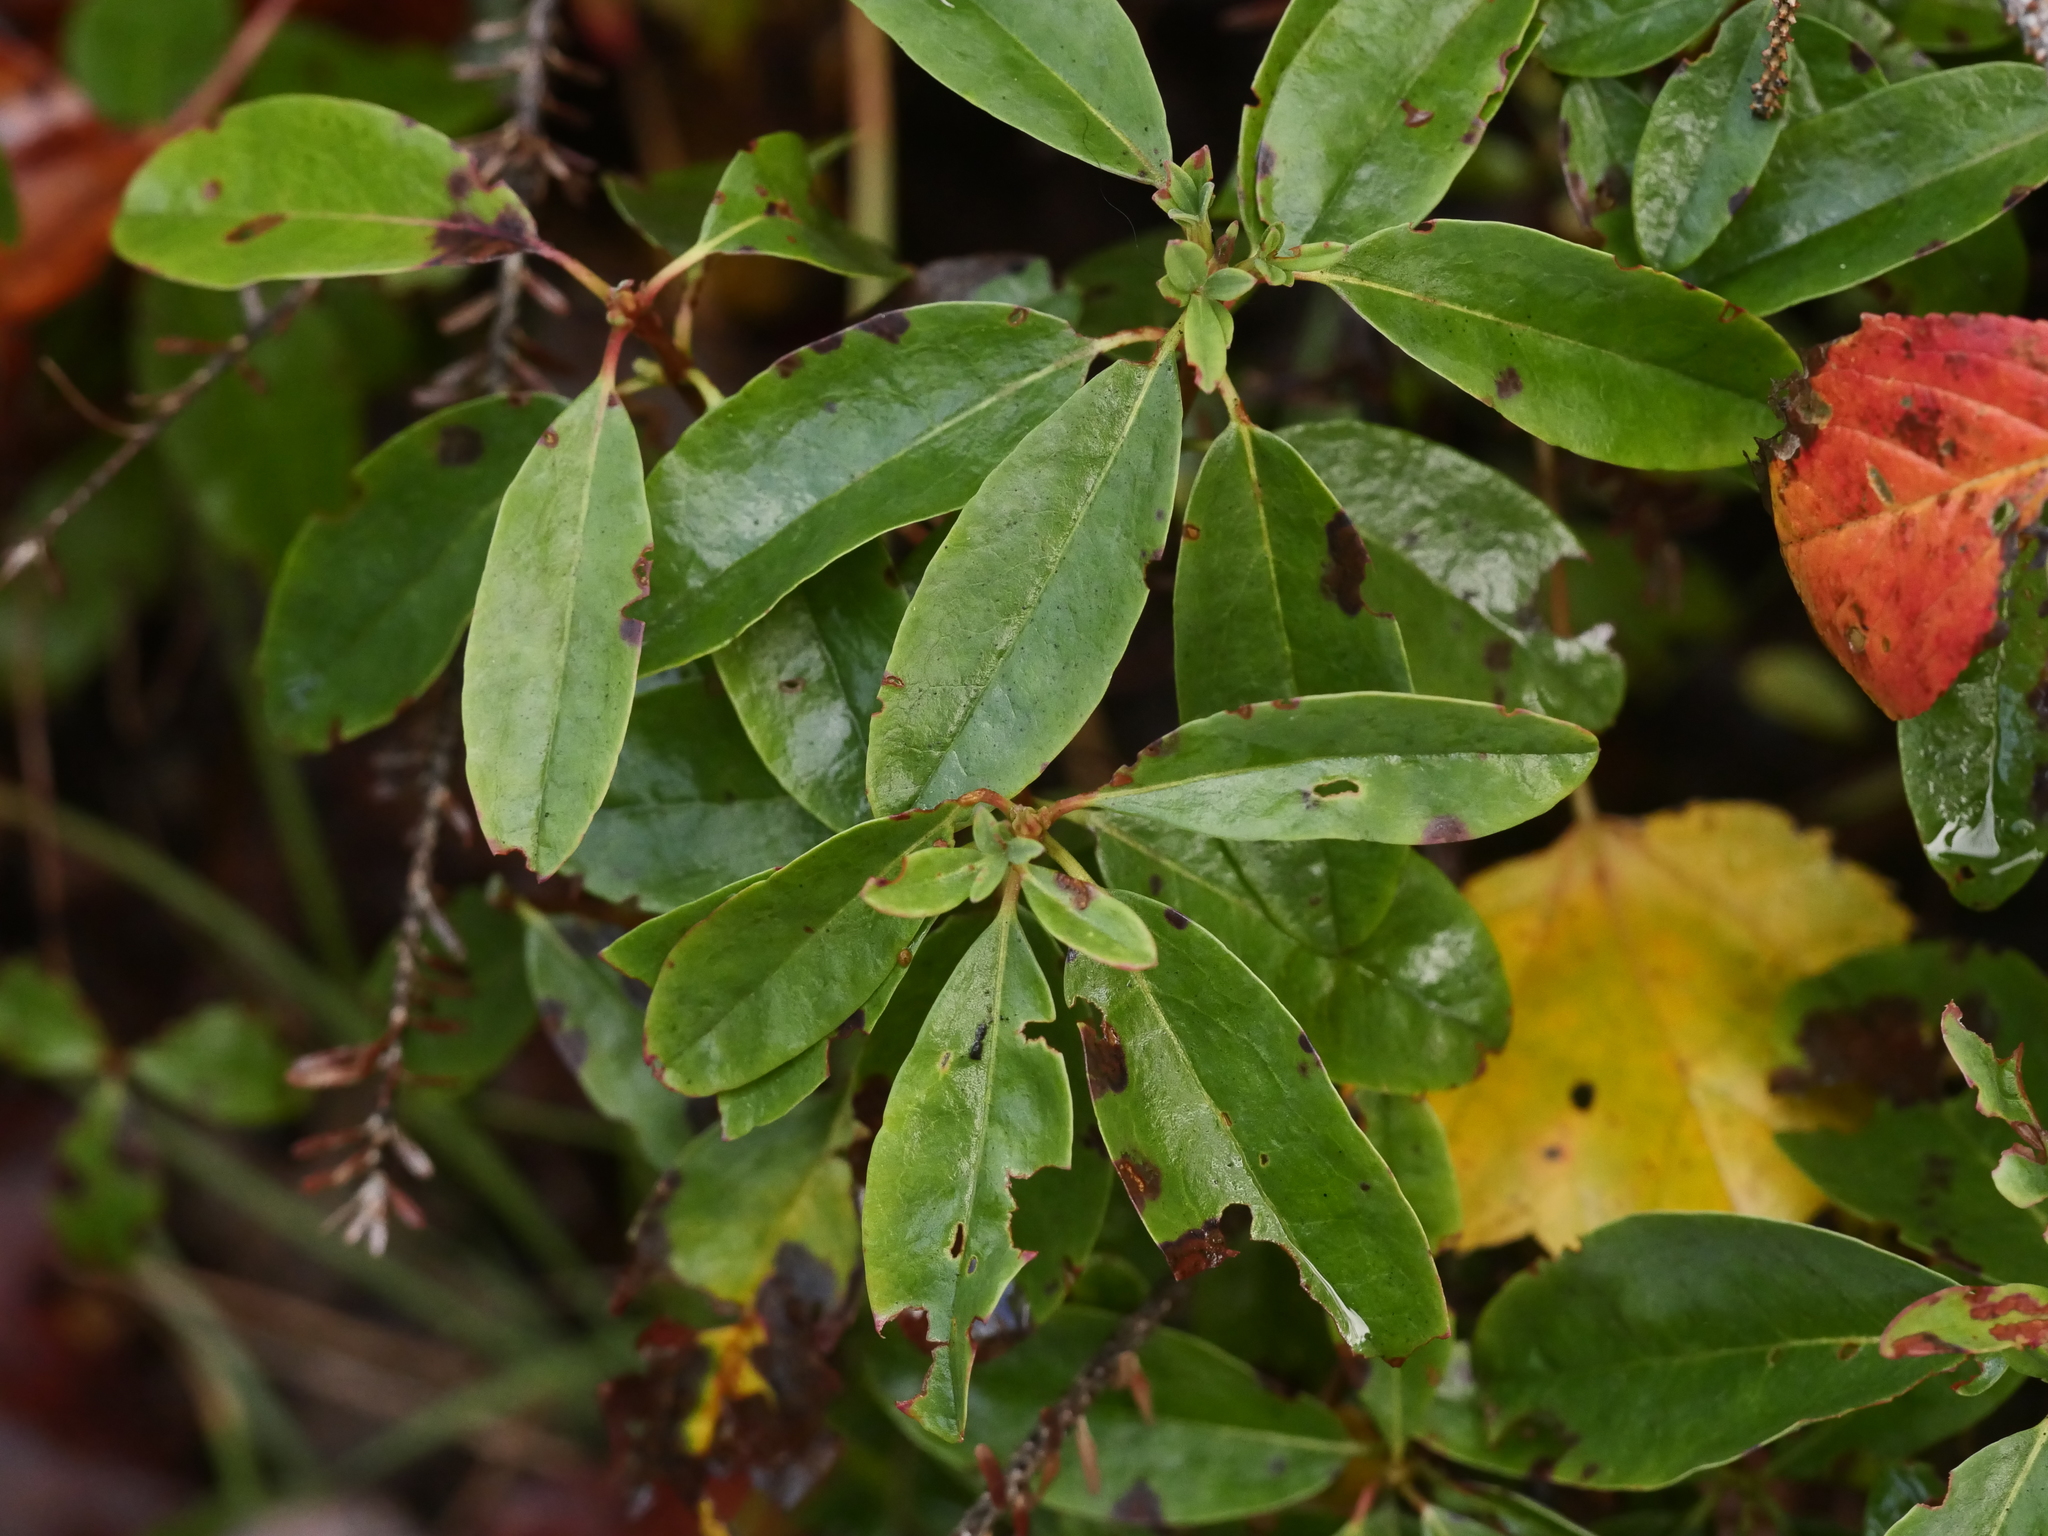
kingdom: Plantae
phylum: Tracheophyta
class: Magnoliopsida
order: Ericales
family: Ericaceae
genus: Kalmia
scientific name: Kalmia angustifolia
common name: Sheep-laurel
